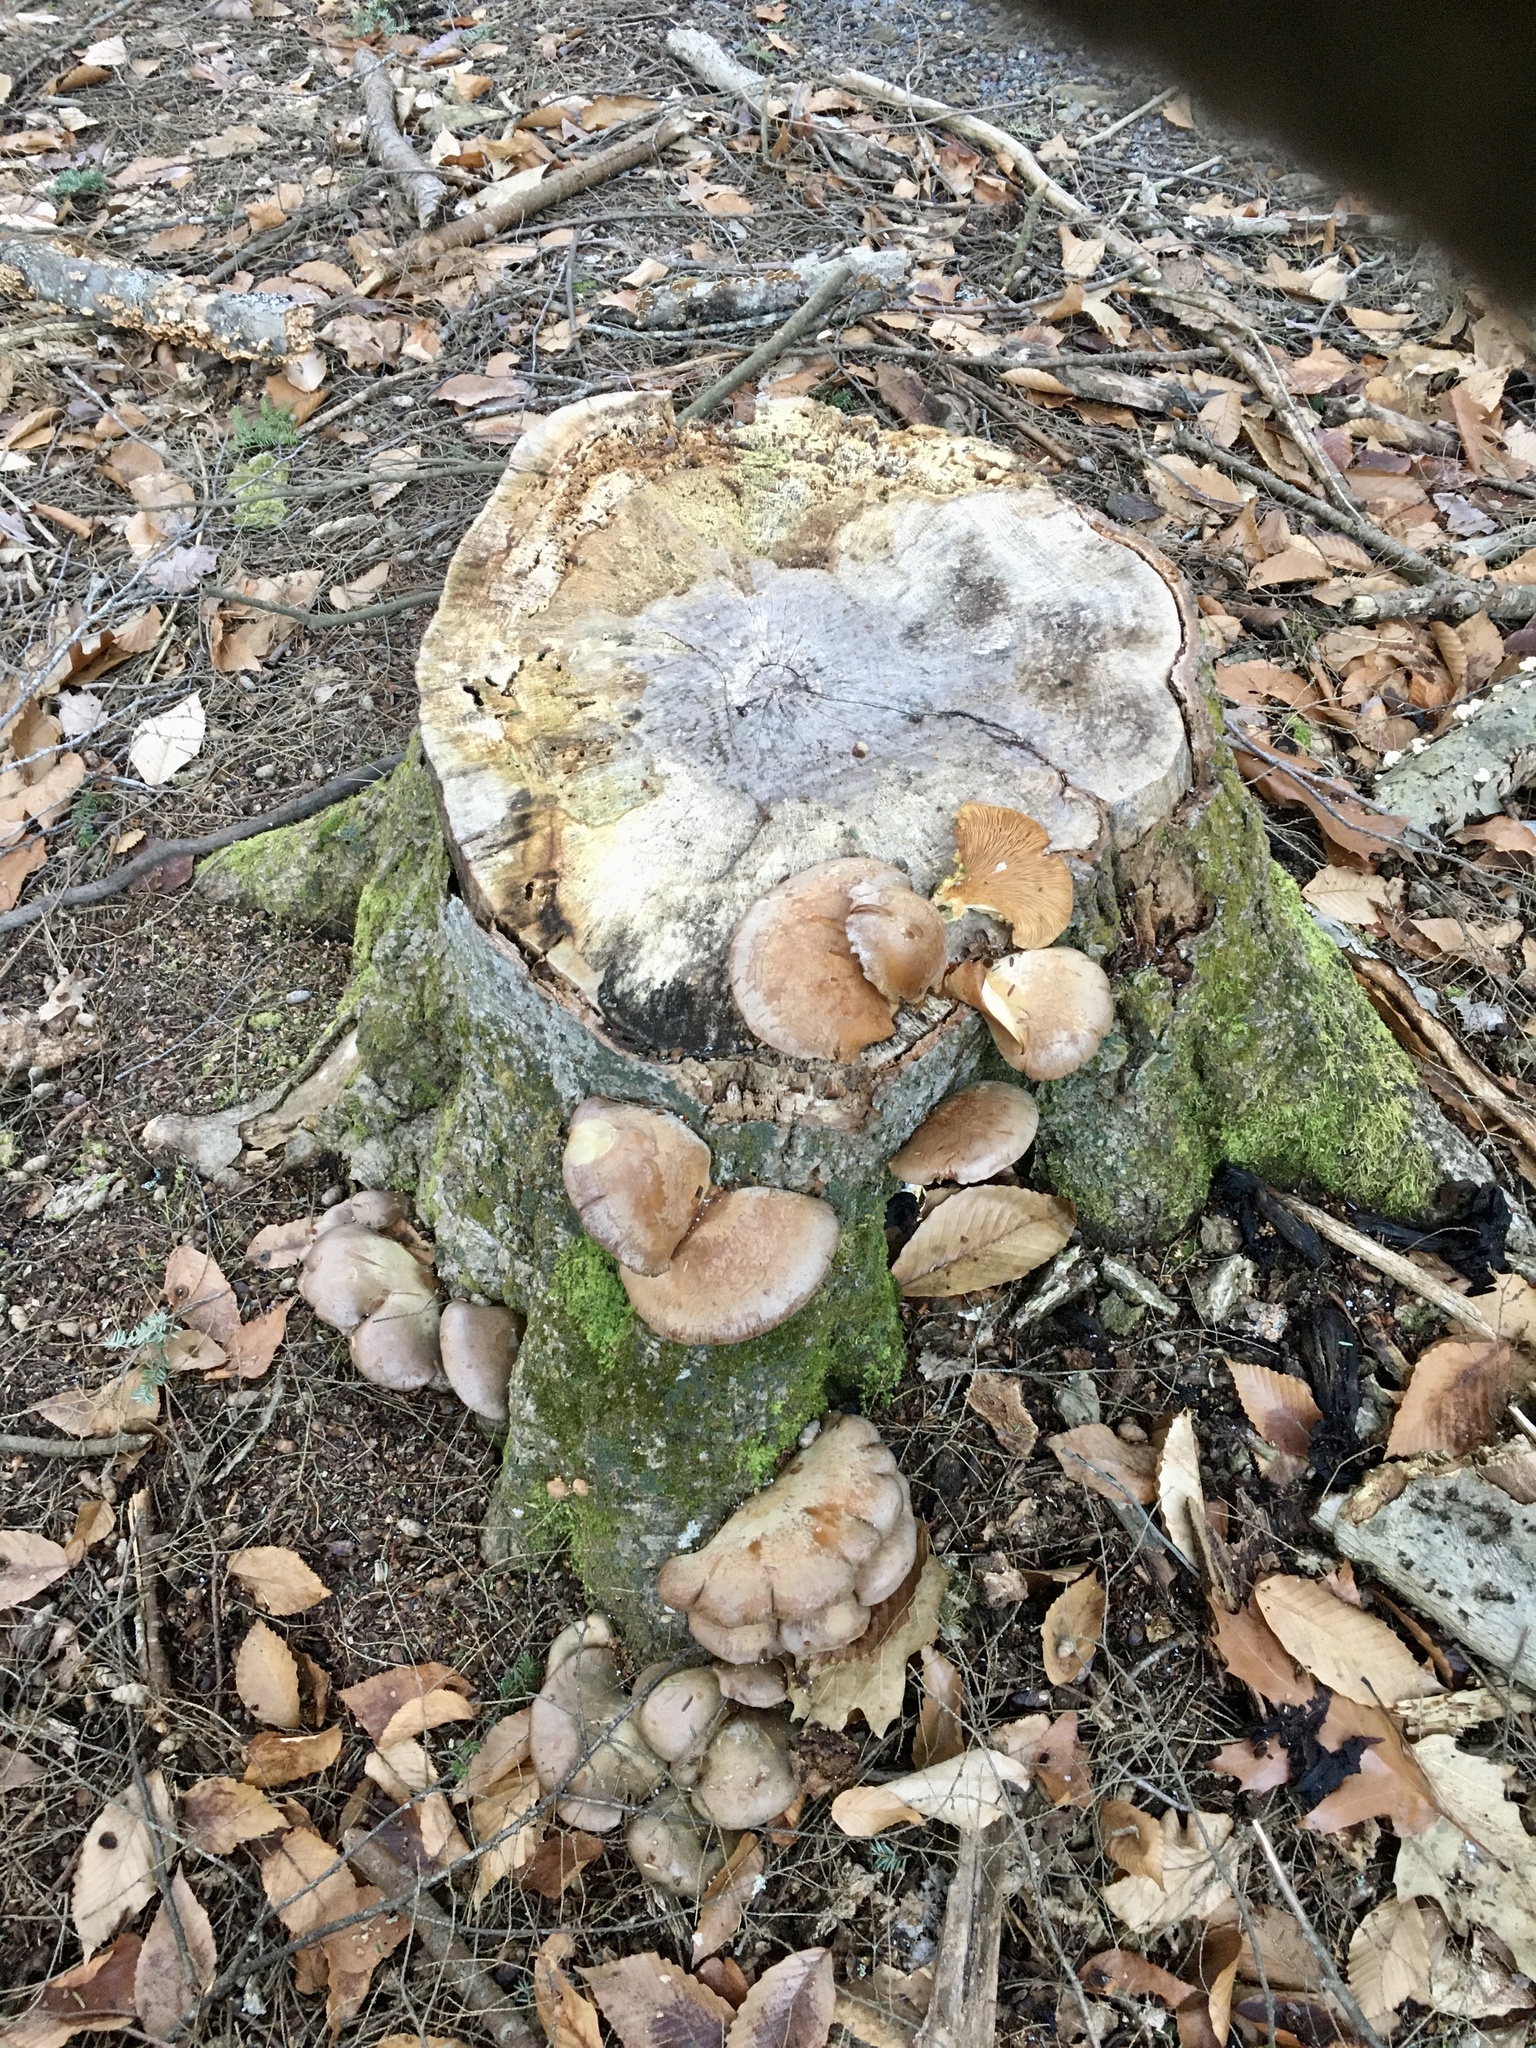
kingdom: Fungi
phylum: Basidiomycota
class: Agaricomycetes
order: Agaricales
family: Sarcomyxaceae
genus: Sarcomyxa
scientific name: Sarcomyxa serotina
